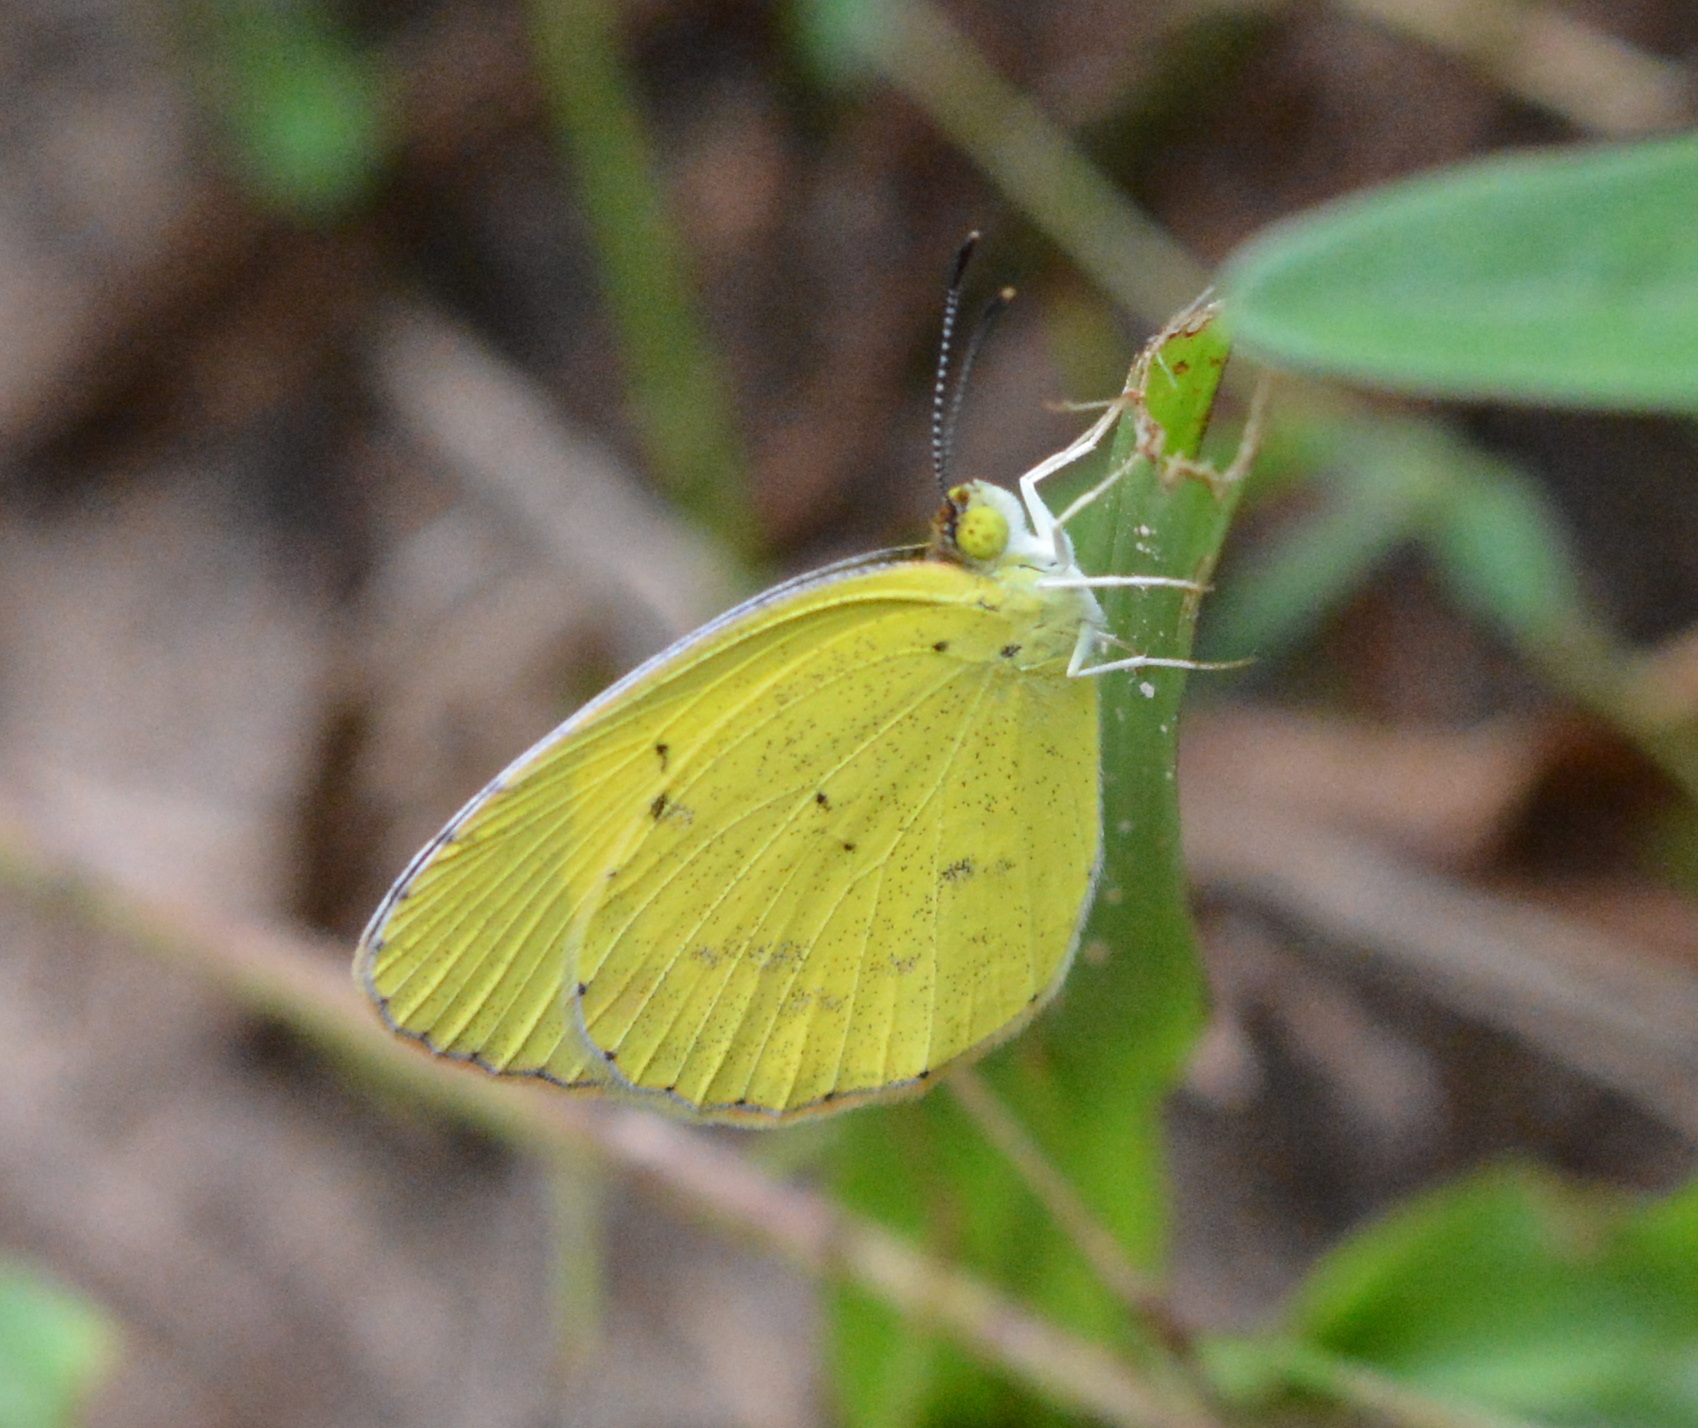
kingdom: Animalia
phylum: Arthropoda
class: Insecta
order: Lepidoptera
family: Pieridae
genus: Pyrisitia
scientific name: Pyrisitia lisa
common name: Little yellow
